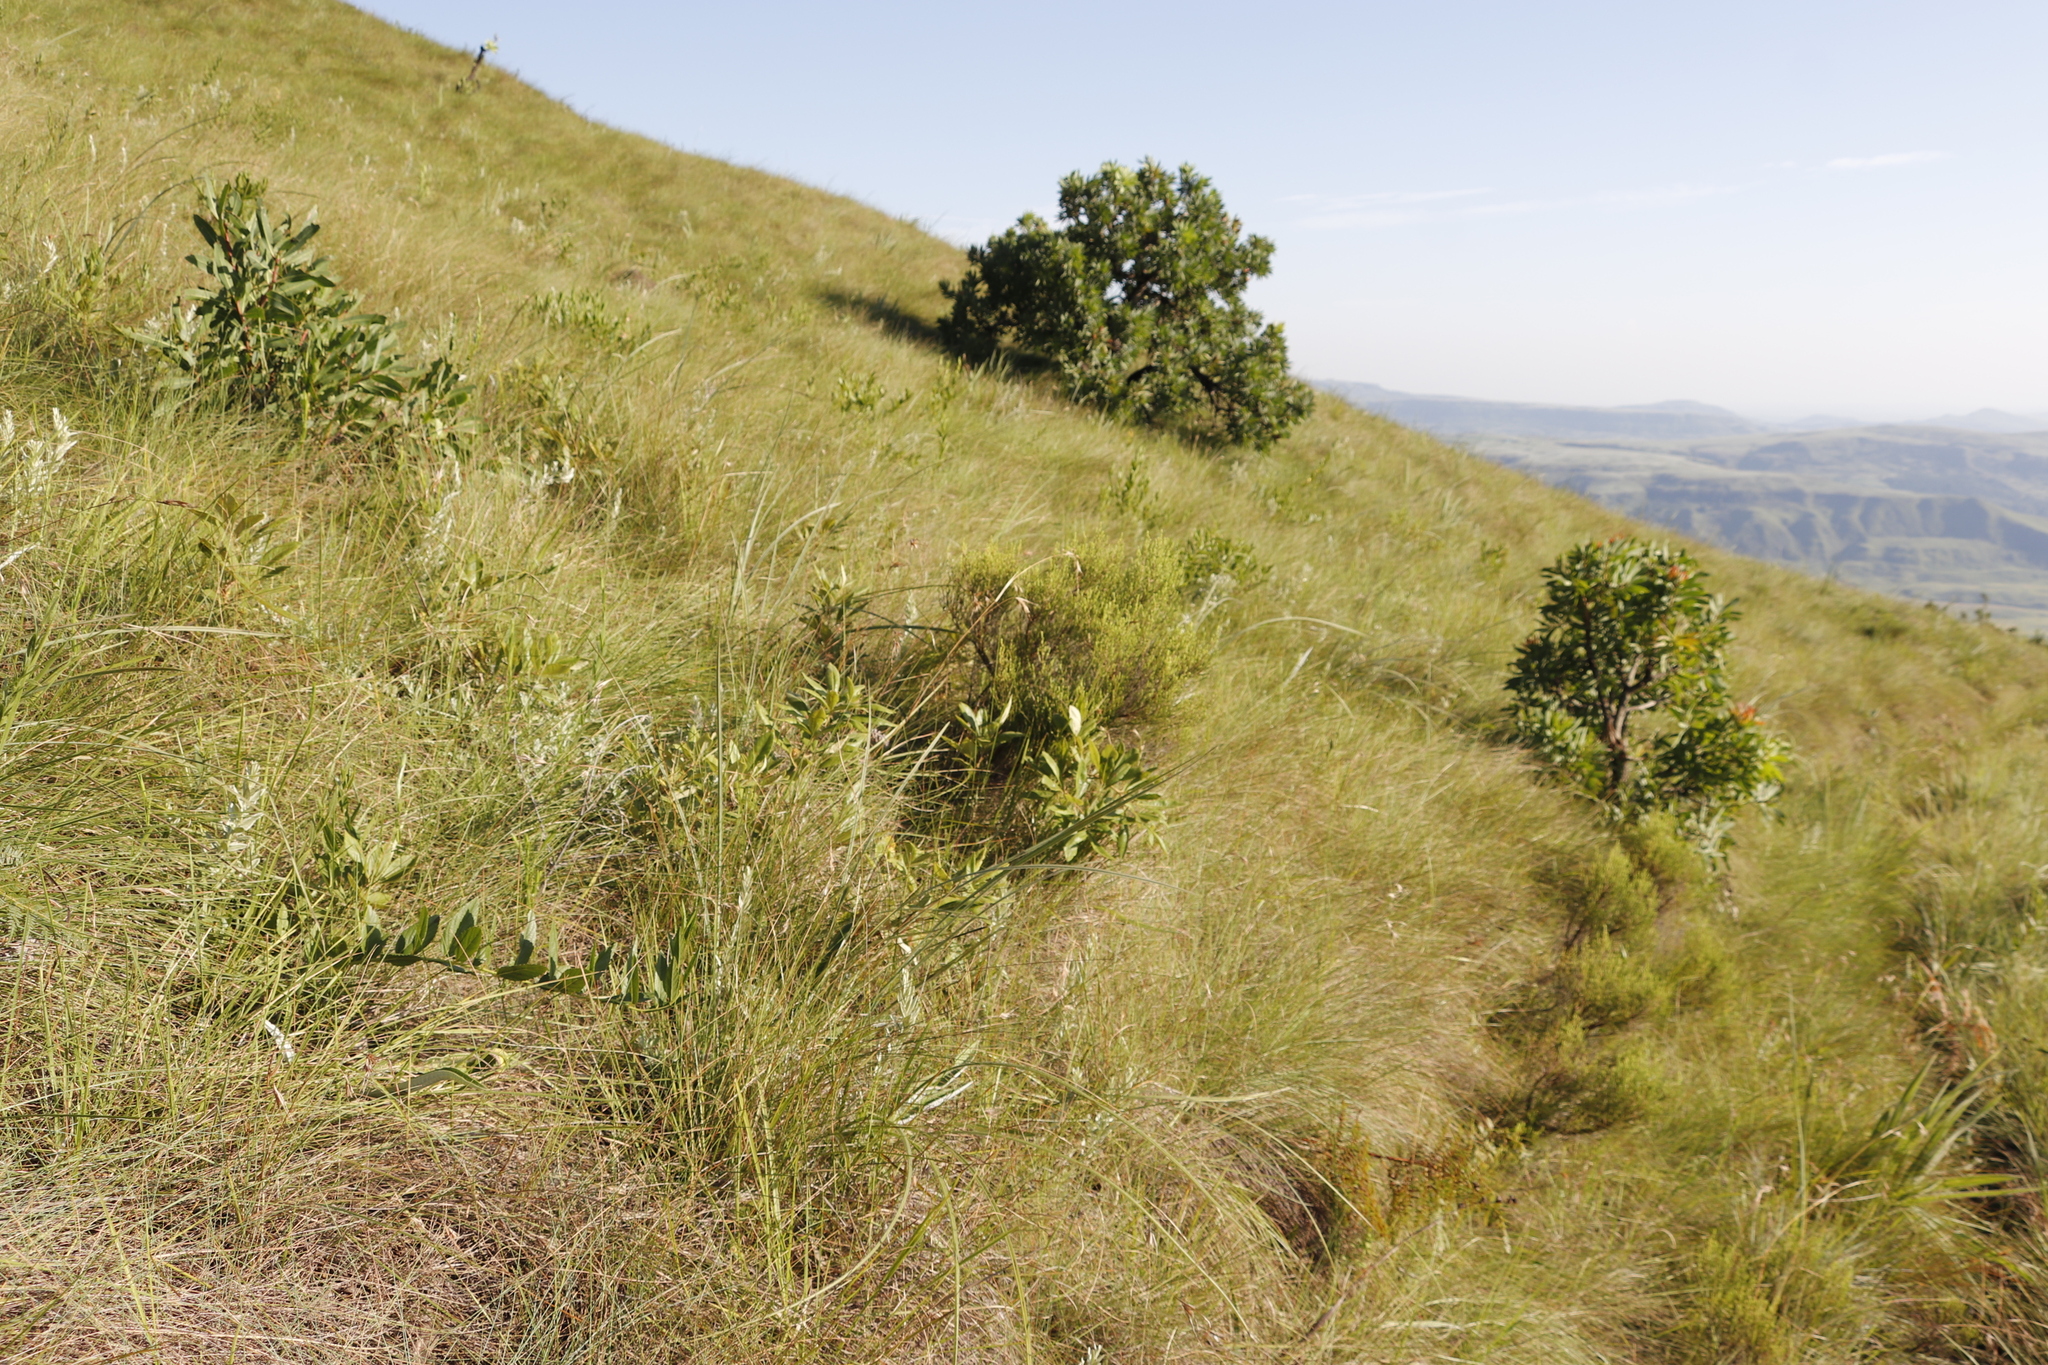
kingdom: Plantae
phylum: Tracheophyta
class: Magnoliopsida
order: Proteales
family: Proteaceae
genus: Protea
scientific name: Protea caffra
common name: Common sugarbush
